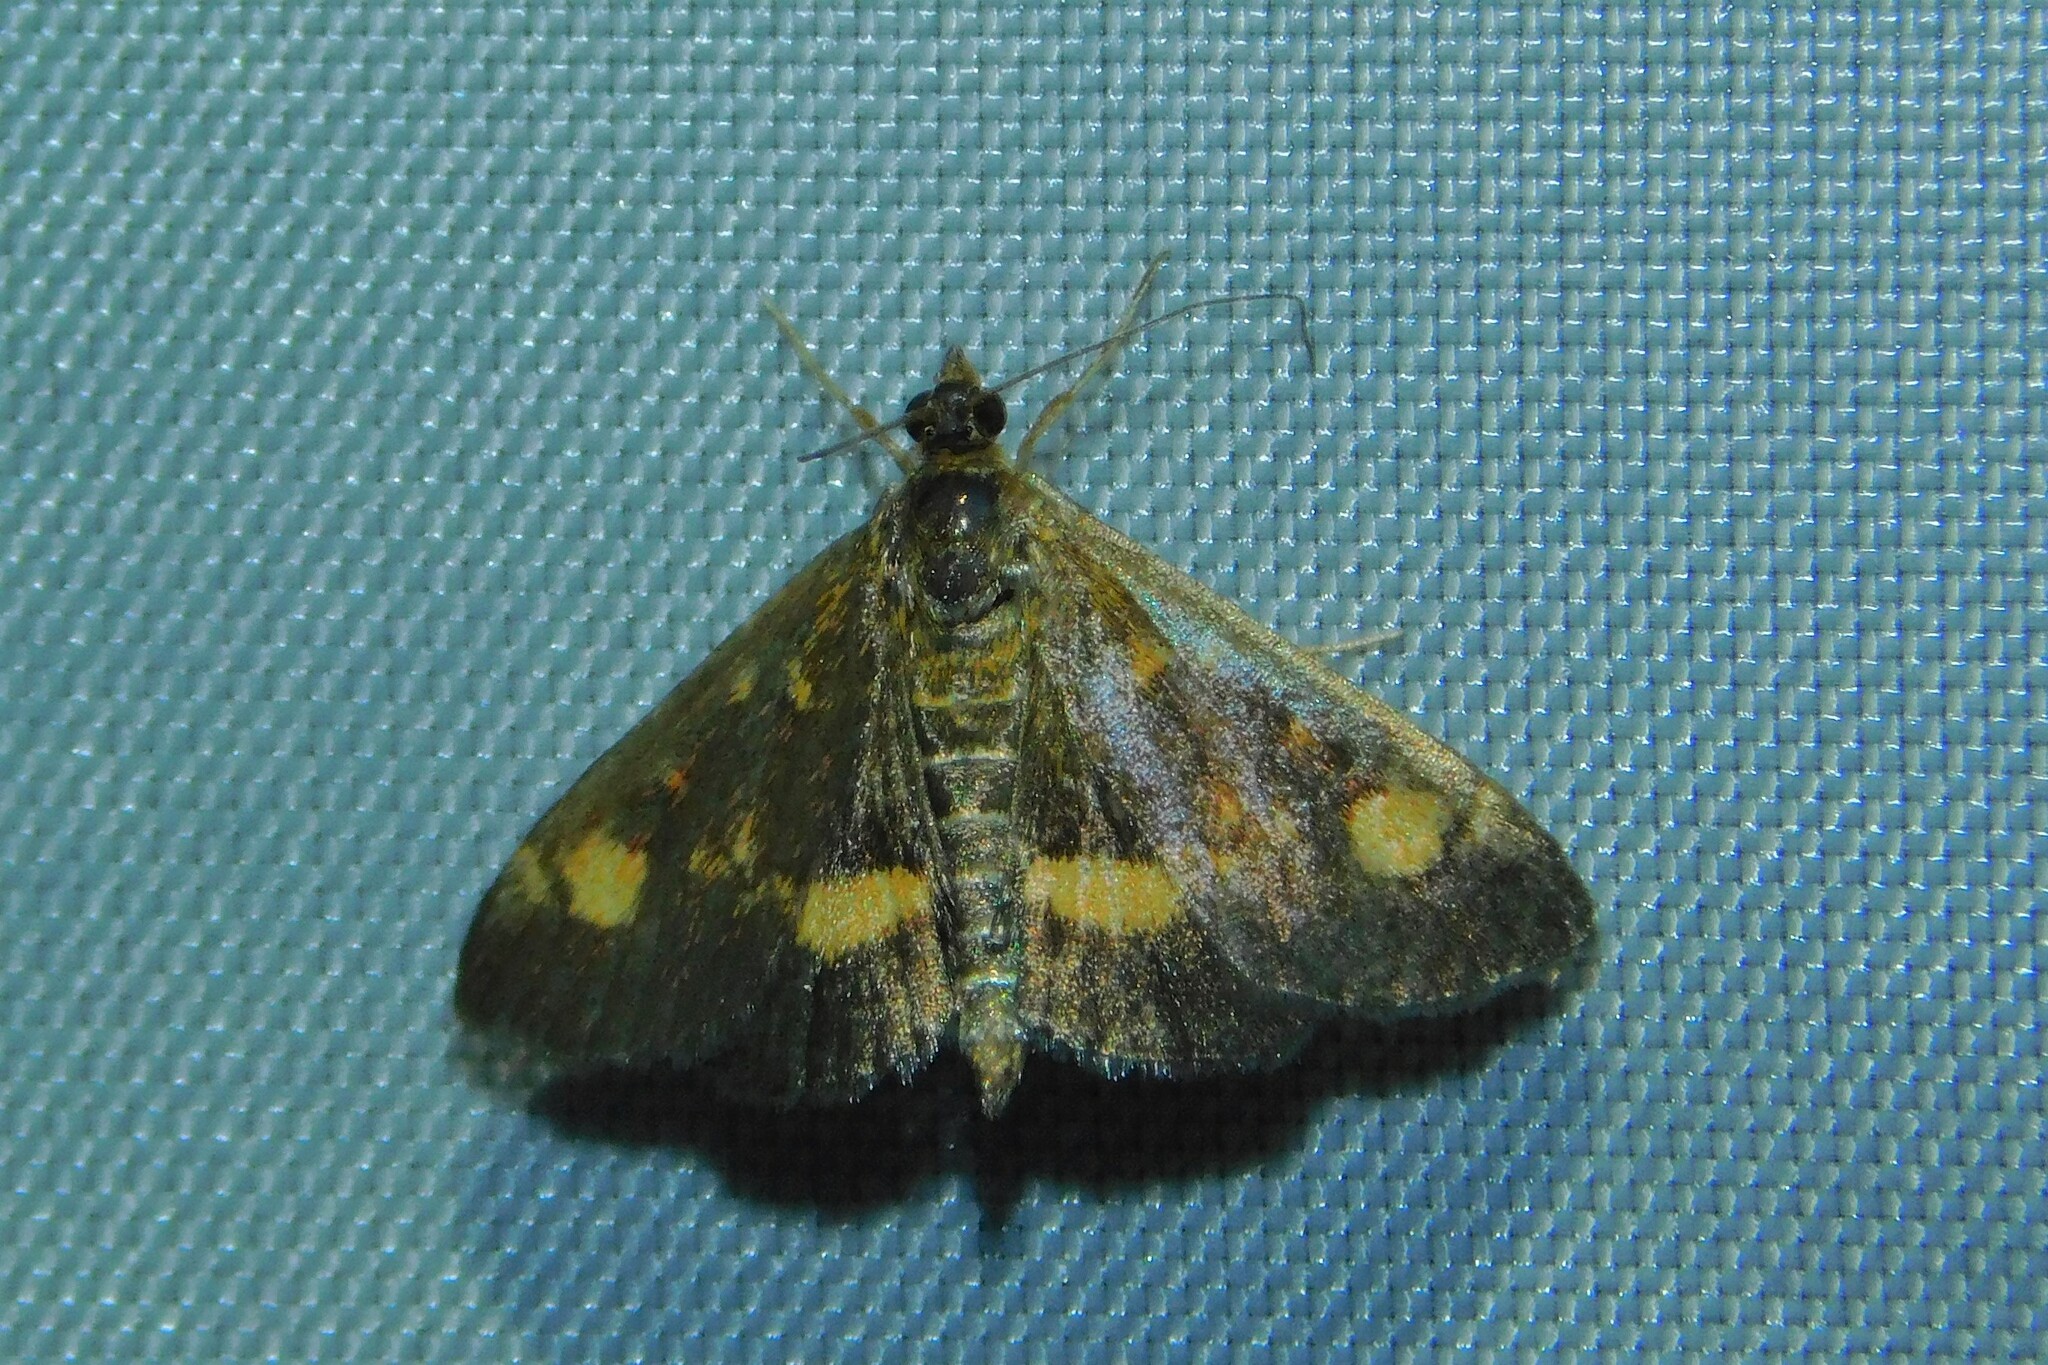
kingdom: Animalia
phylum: Arthropoda
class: Insecta
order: Lepidoptera
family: Crambidae
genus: Pyrausta
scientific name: Pyrausta aurata
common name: Small purple & gold
